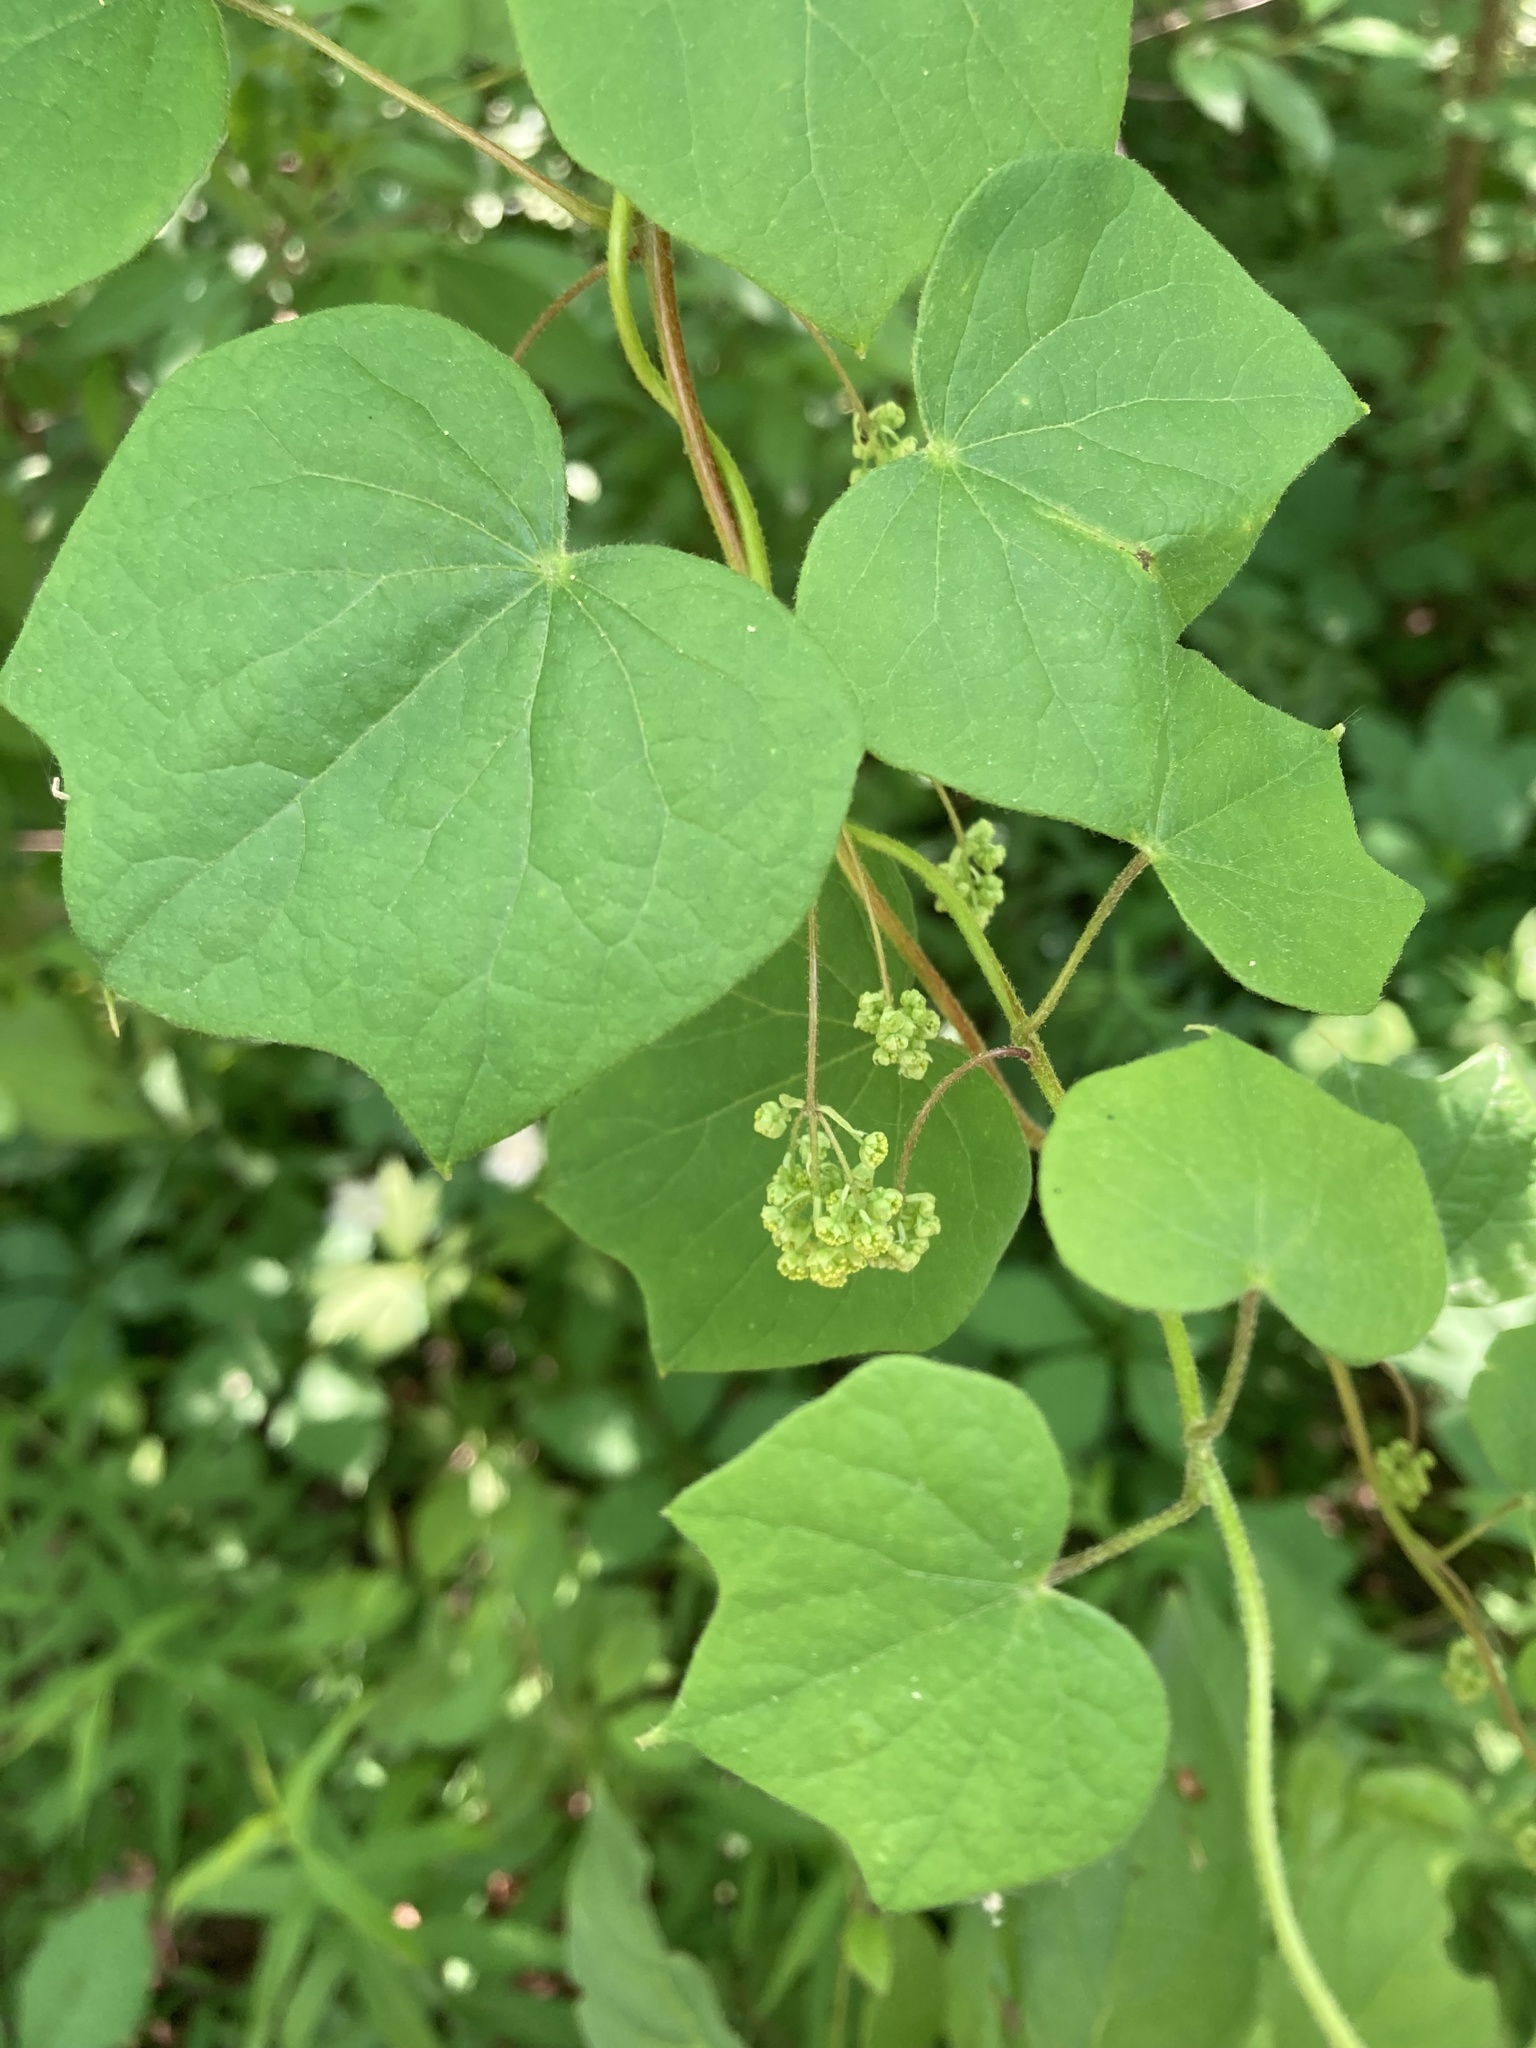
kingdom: Plantae
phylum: Tracheophyta
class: Magnoliopsida
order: Ranunculales
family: Menispermaceae
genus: Menispermum
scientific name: Menispermum canadense
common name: Moonseed
